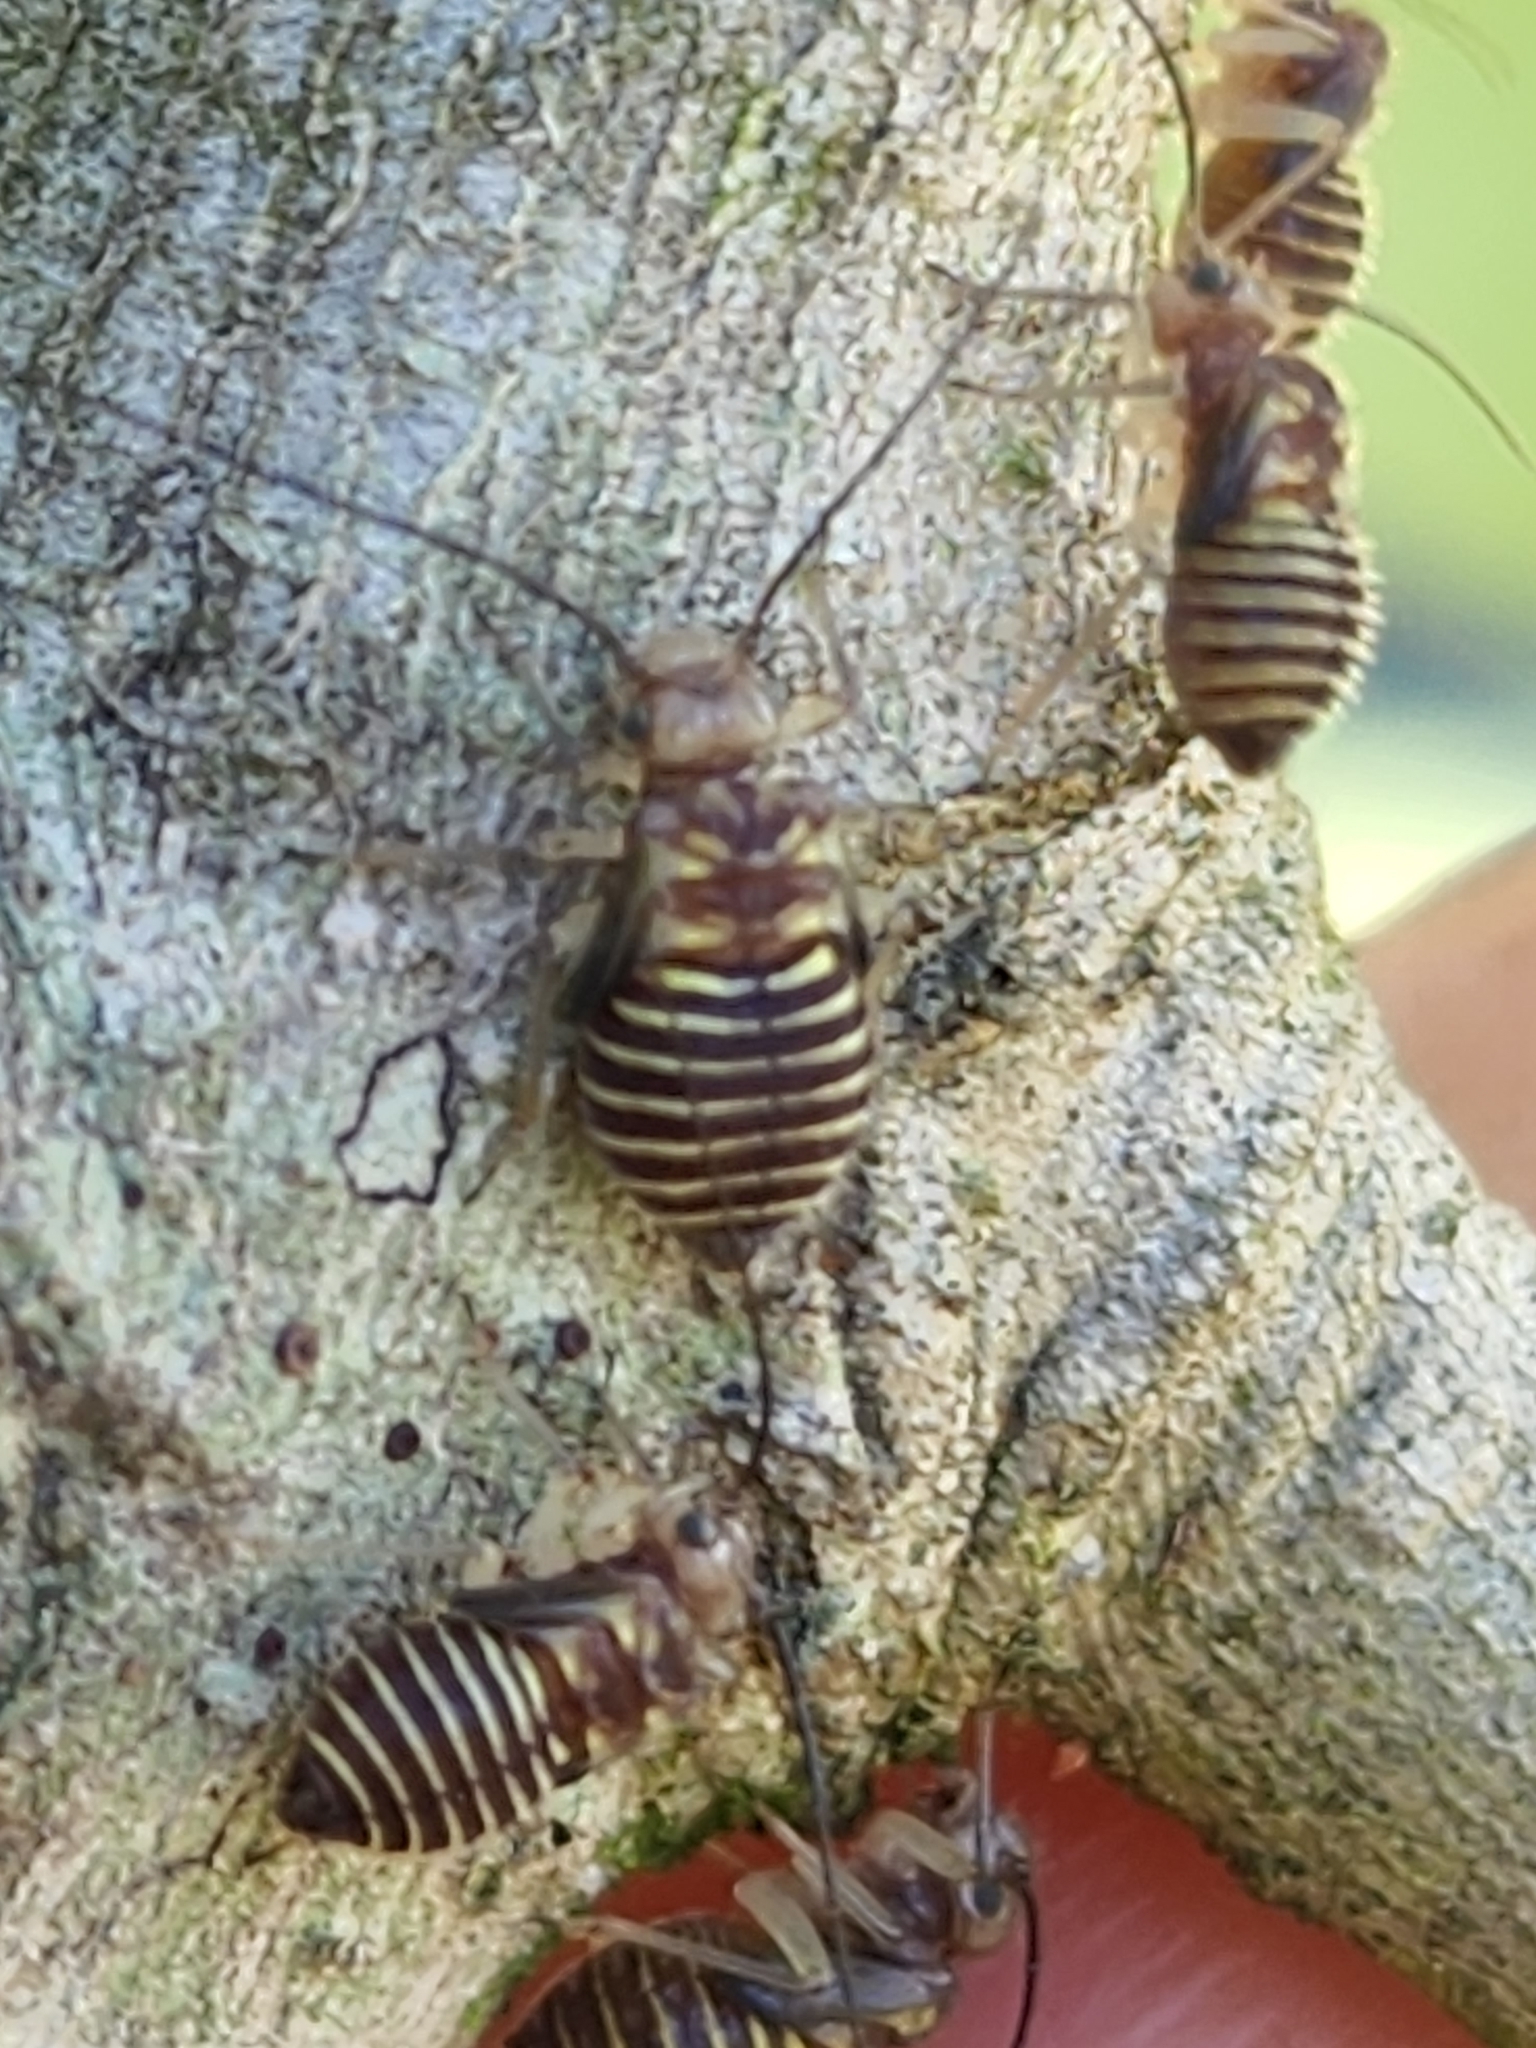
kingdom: Animalia
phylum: Arthropoda
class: Insecta
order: Psocodea
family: Psocidae
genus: Cerastipsocus
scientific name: Cerastipsocus venosus
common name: Tree cattle
